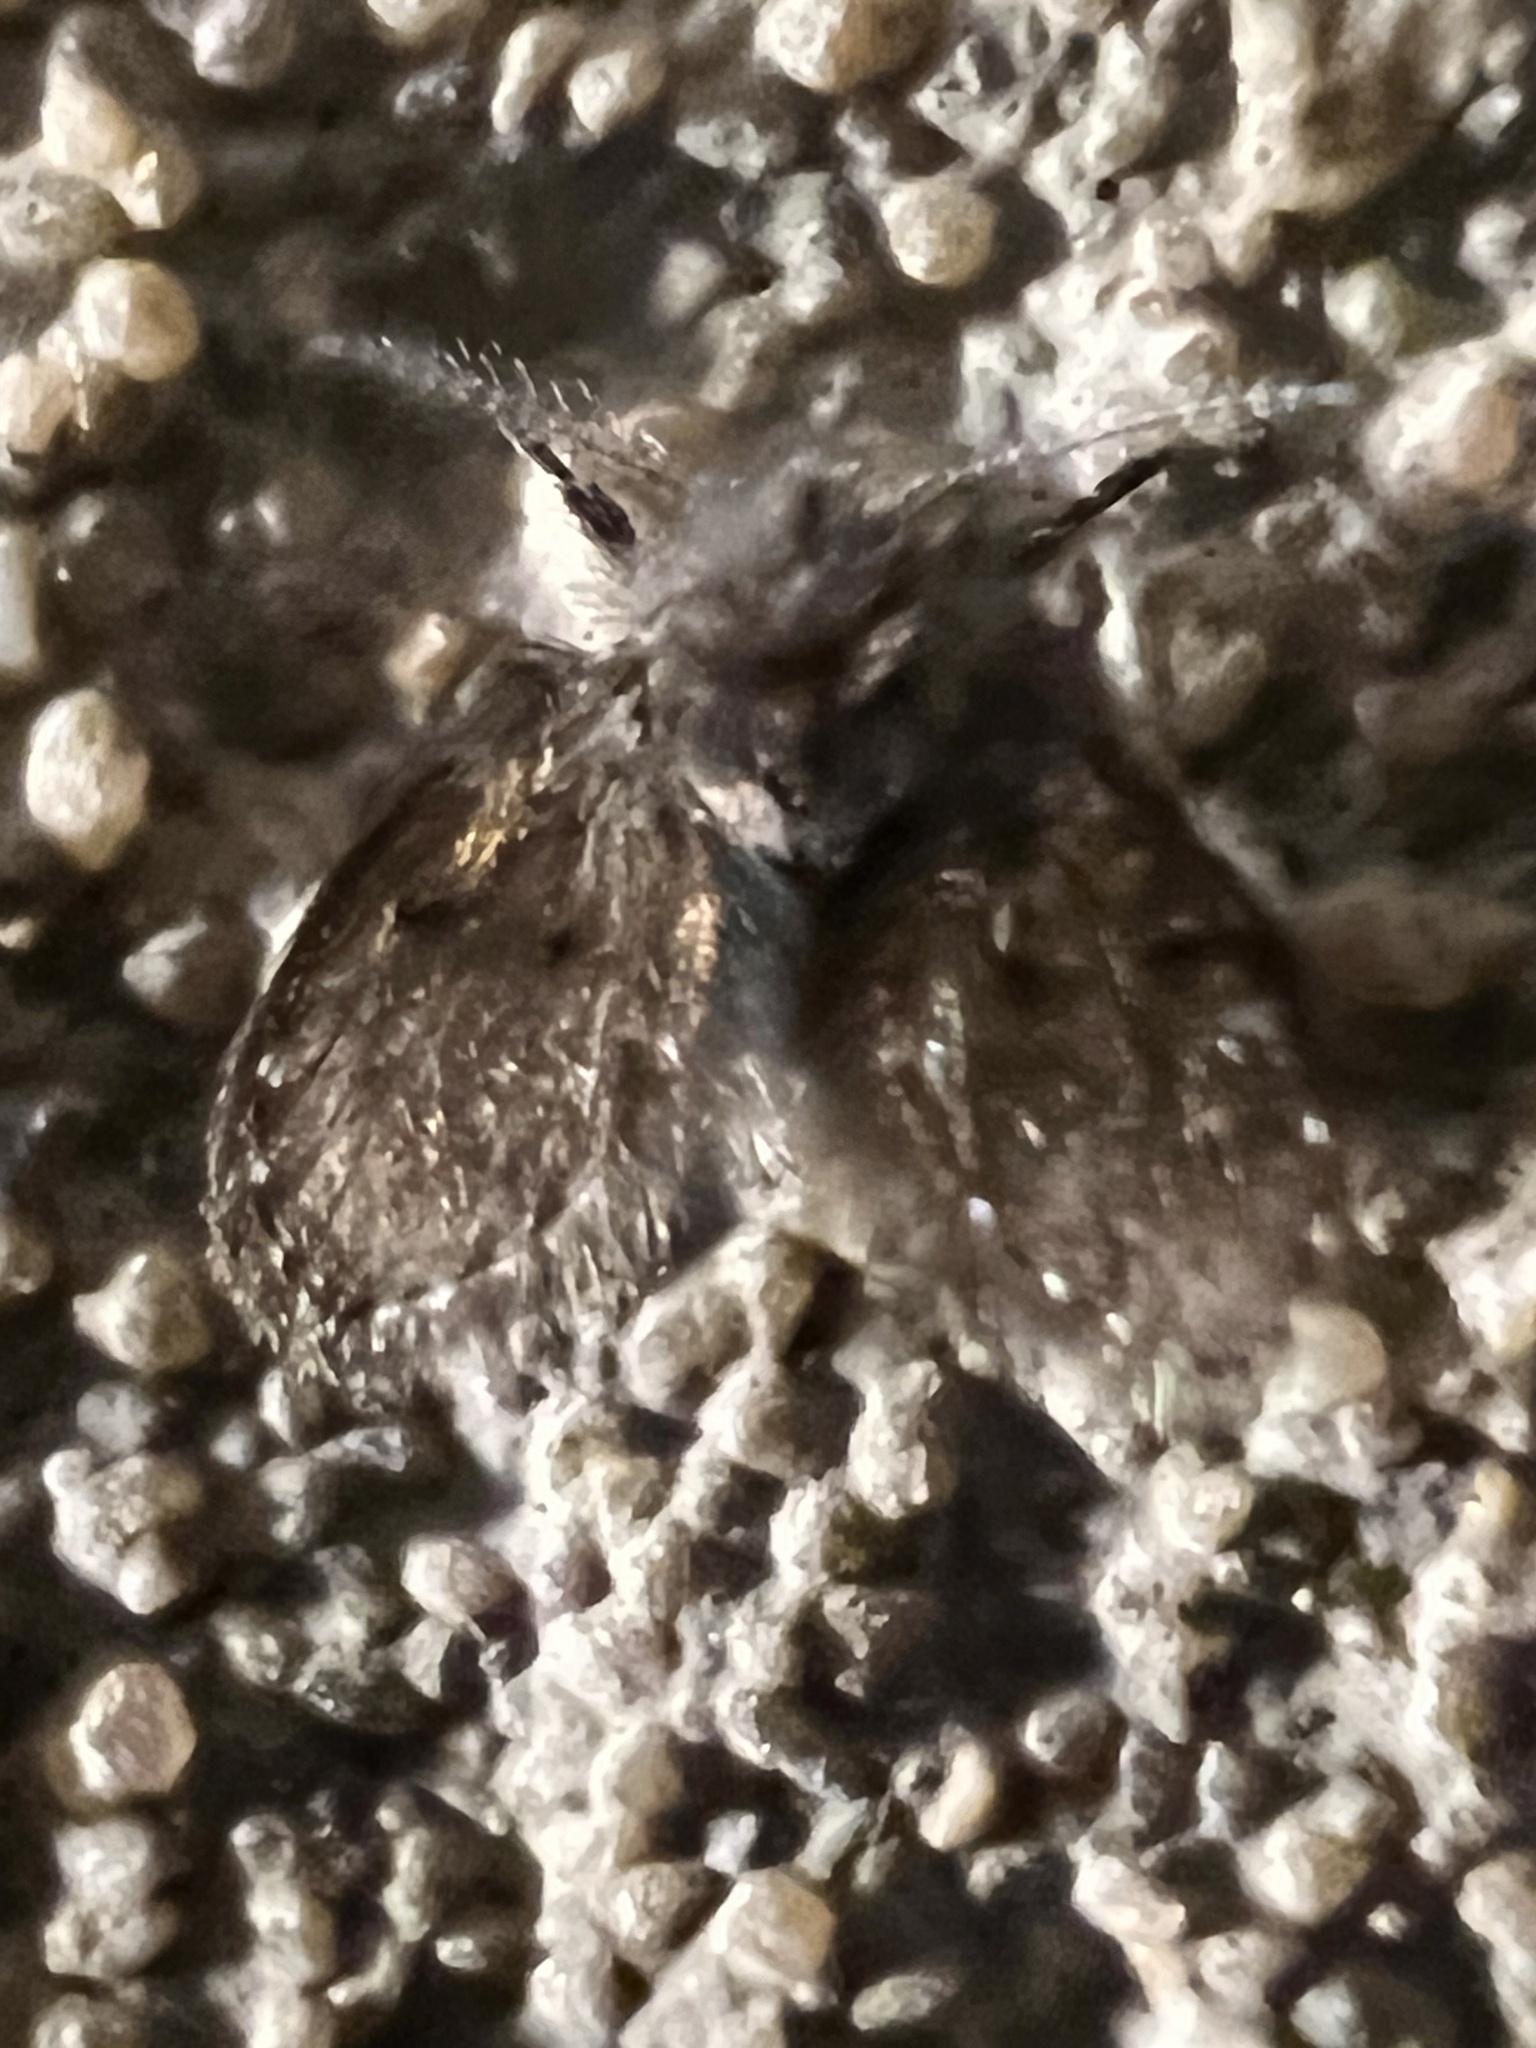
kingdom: Animalia
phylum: Arthropoda
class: Insecta
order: Diptera
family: Psychodidae
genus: Clogmia
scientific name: Clogmia albipunctatus
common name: White-spotted moth fly
